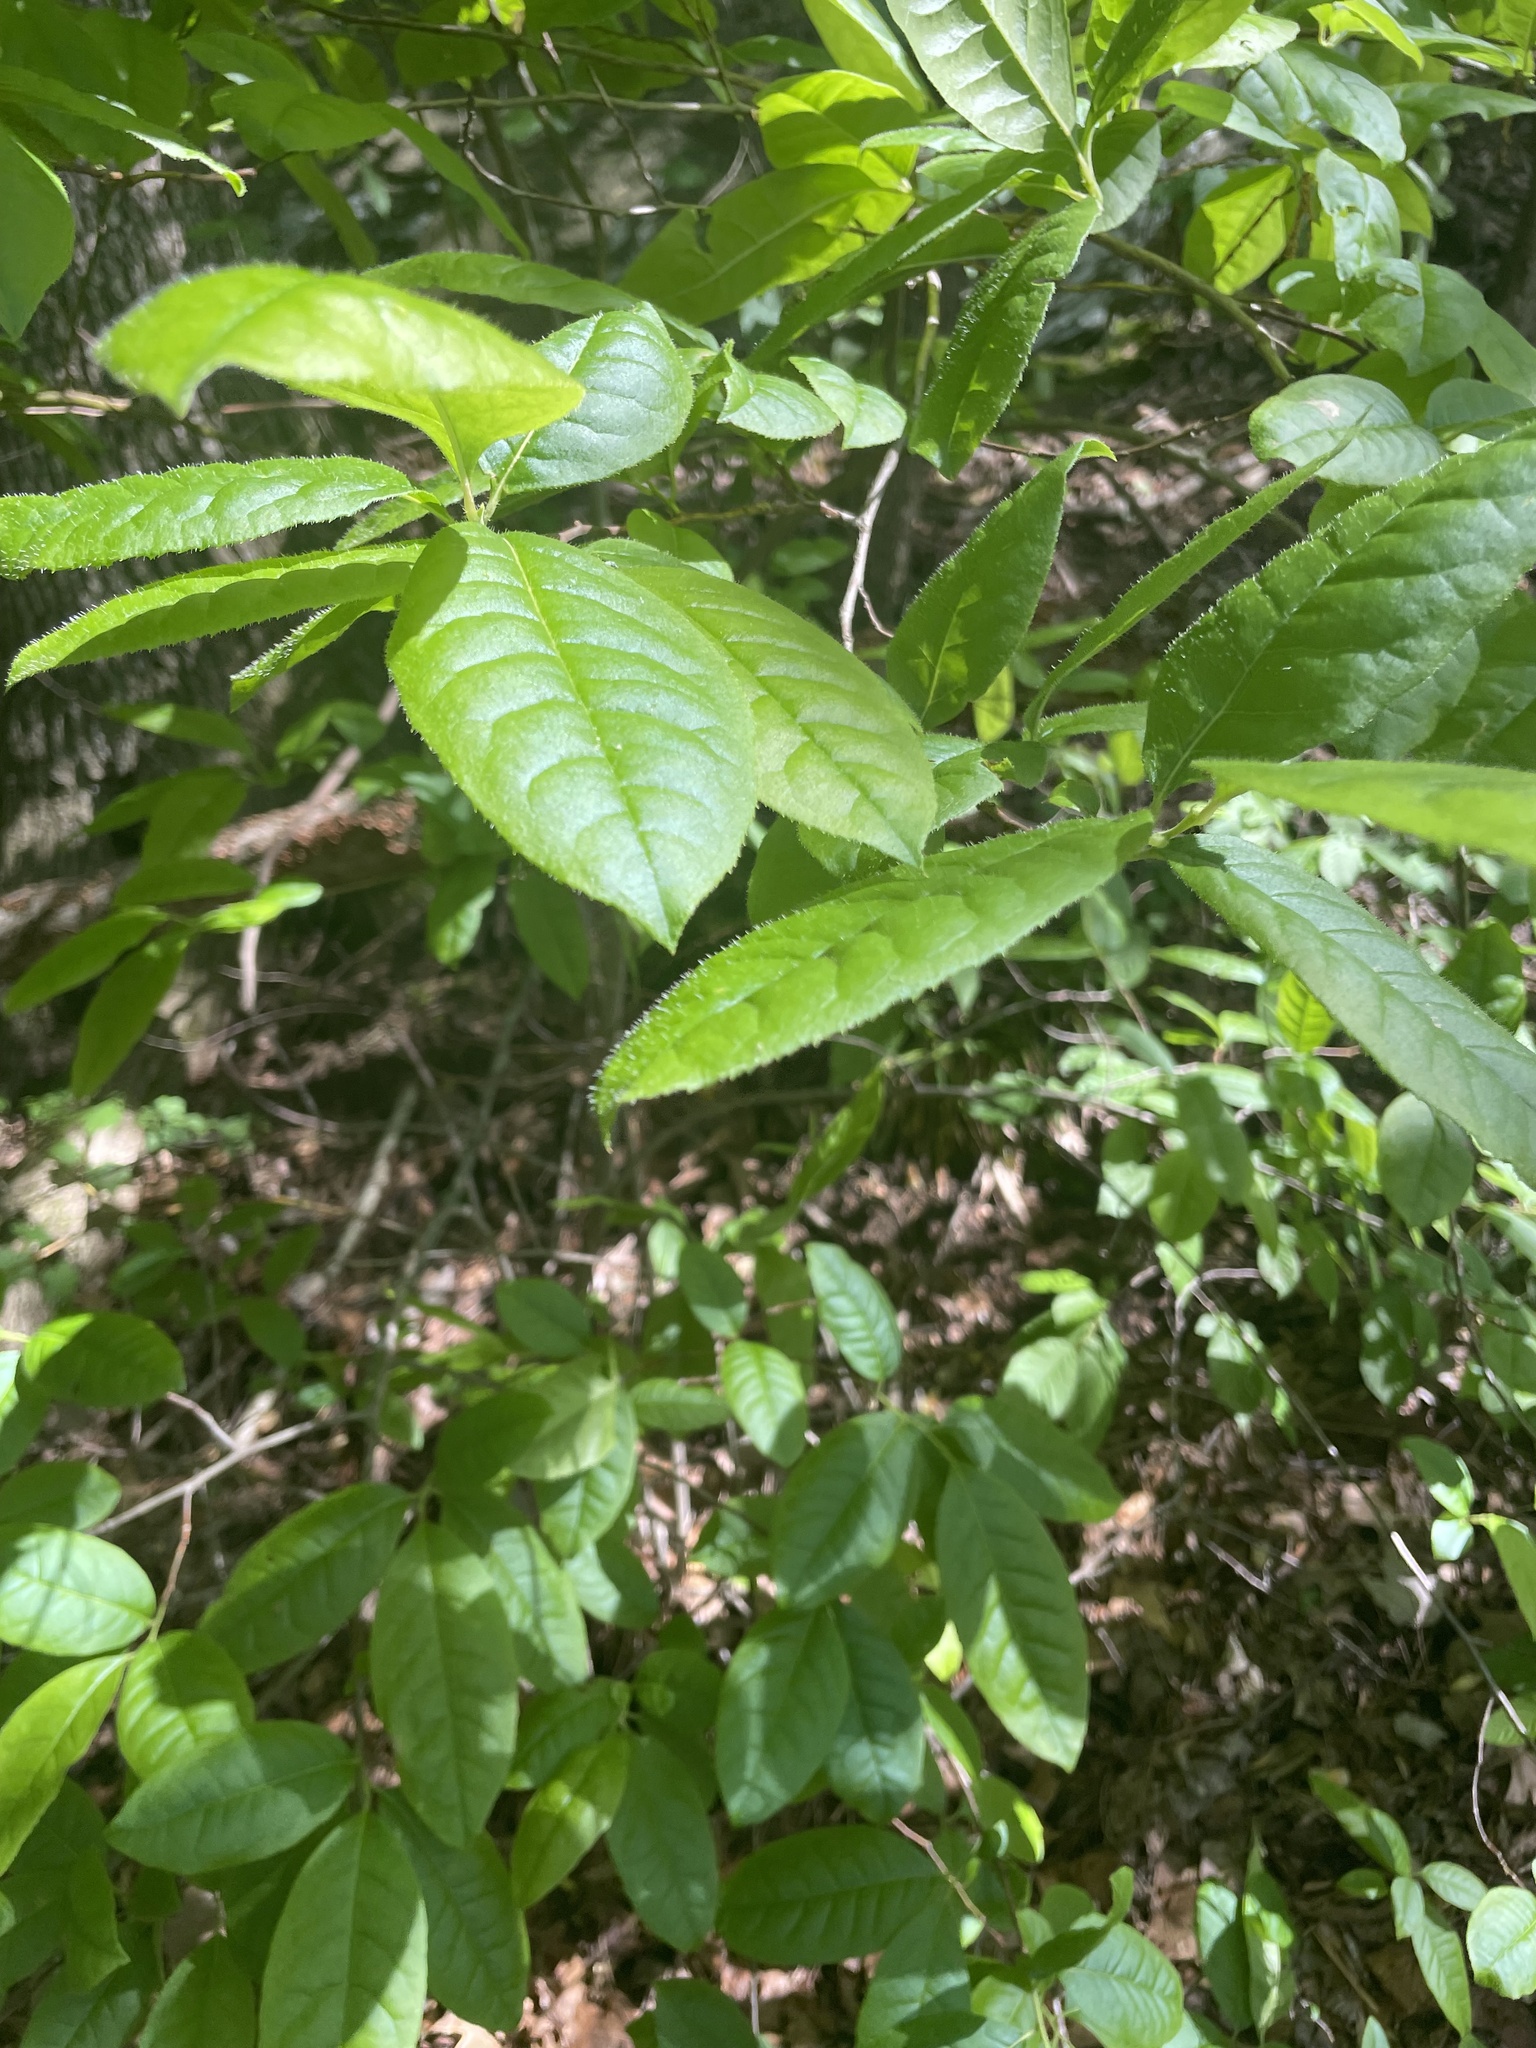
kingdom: Plantae
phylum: Tracheophyta
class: Magnoliopsida
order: Ericales
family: Ericaceae
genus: Oxydendrum
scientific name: Oxydendrum arboreum
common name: Sourwood
